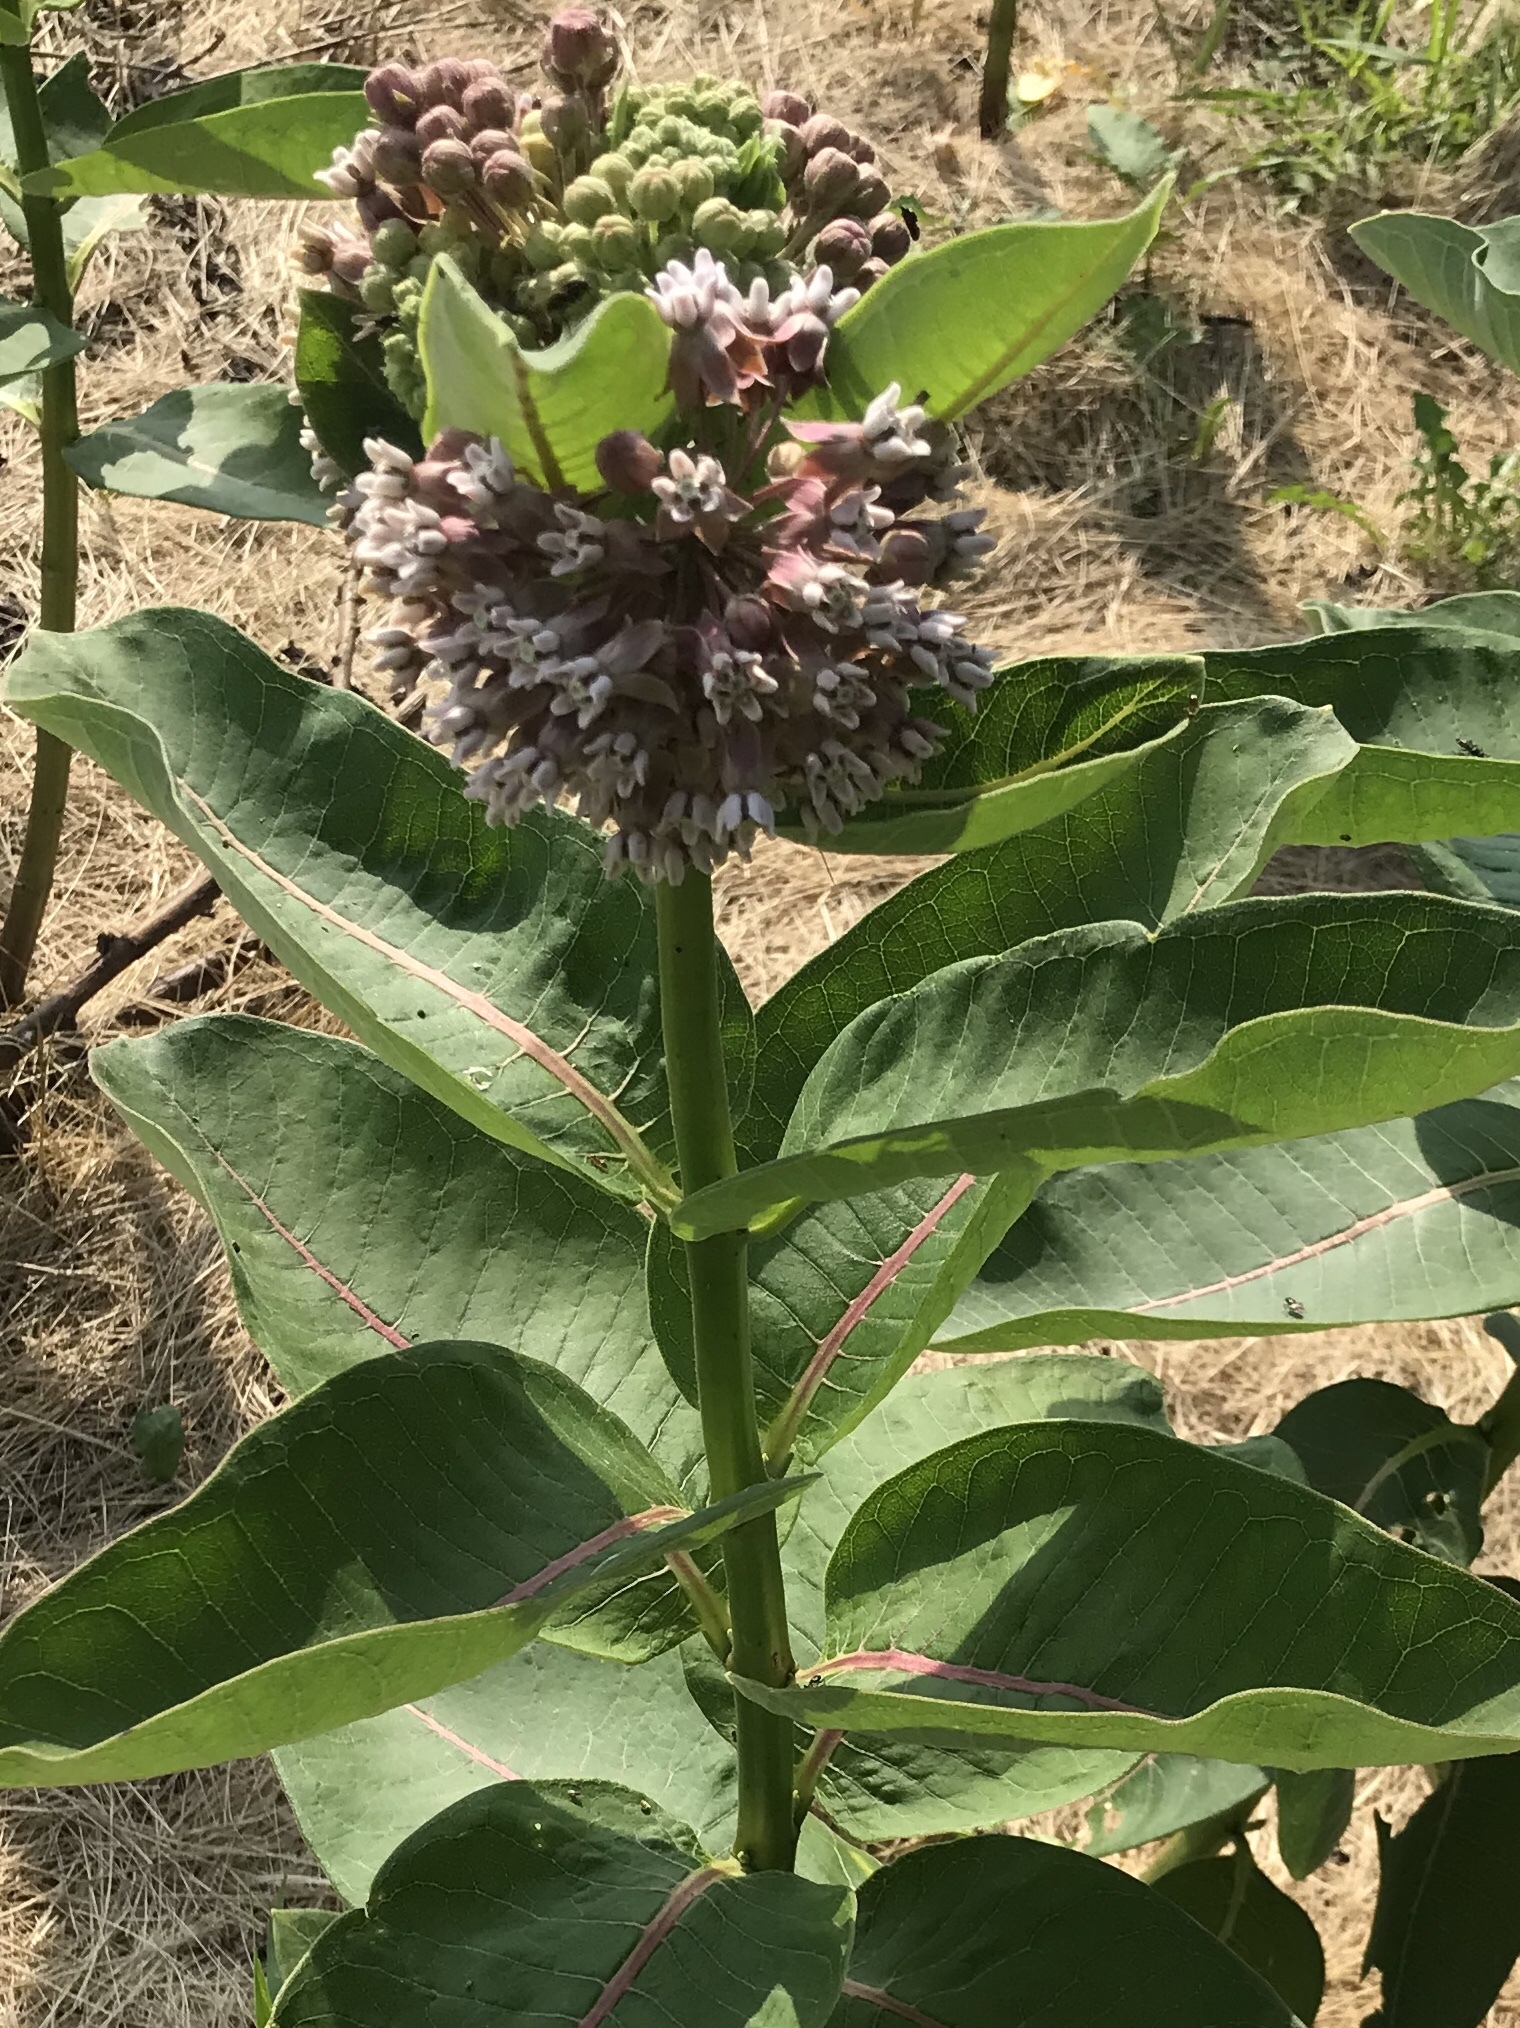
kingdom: Plantae
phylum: Tracheophyta
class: Magnoliopsida
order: Gentianales
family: Apocynaceae
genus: Asclepias
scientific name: Asclepias syriaca
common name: Common milkweed
